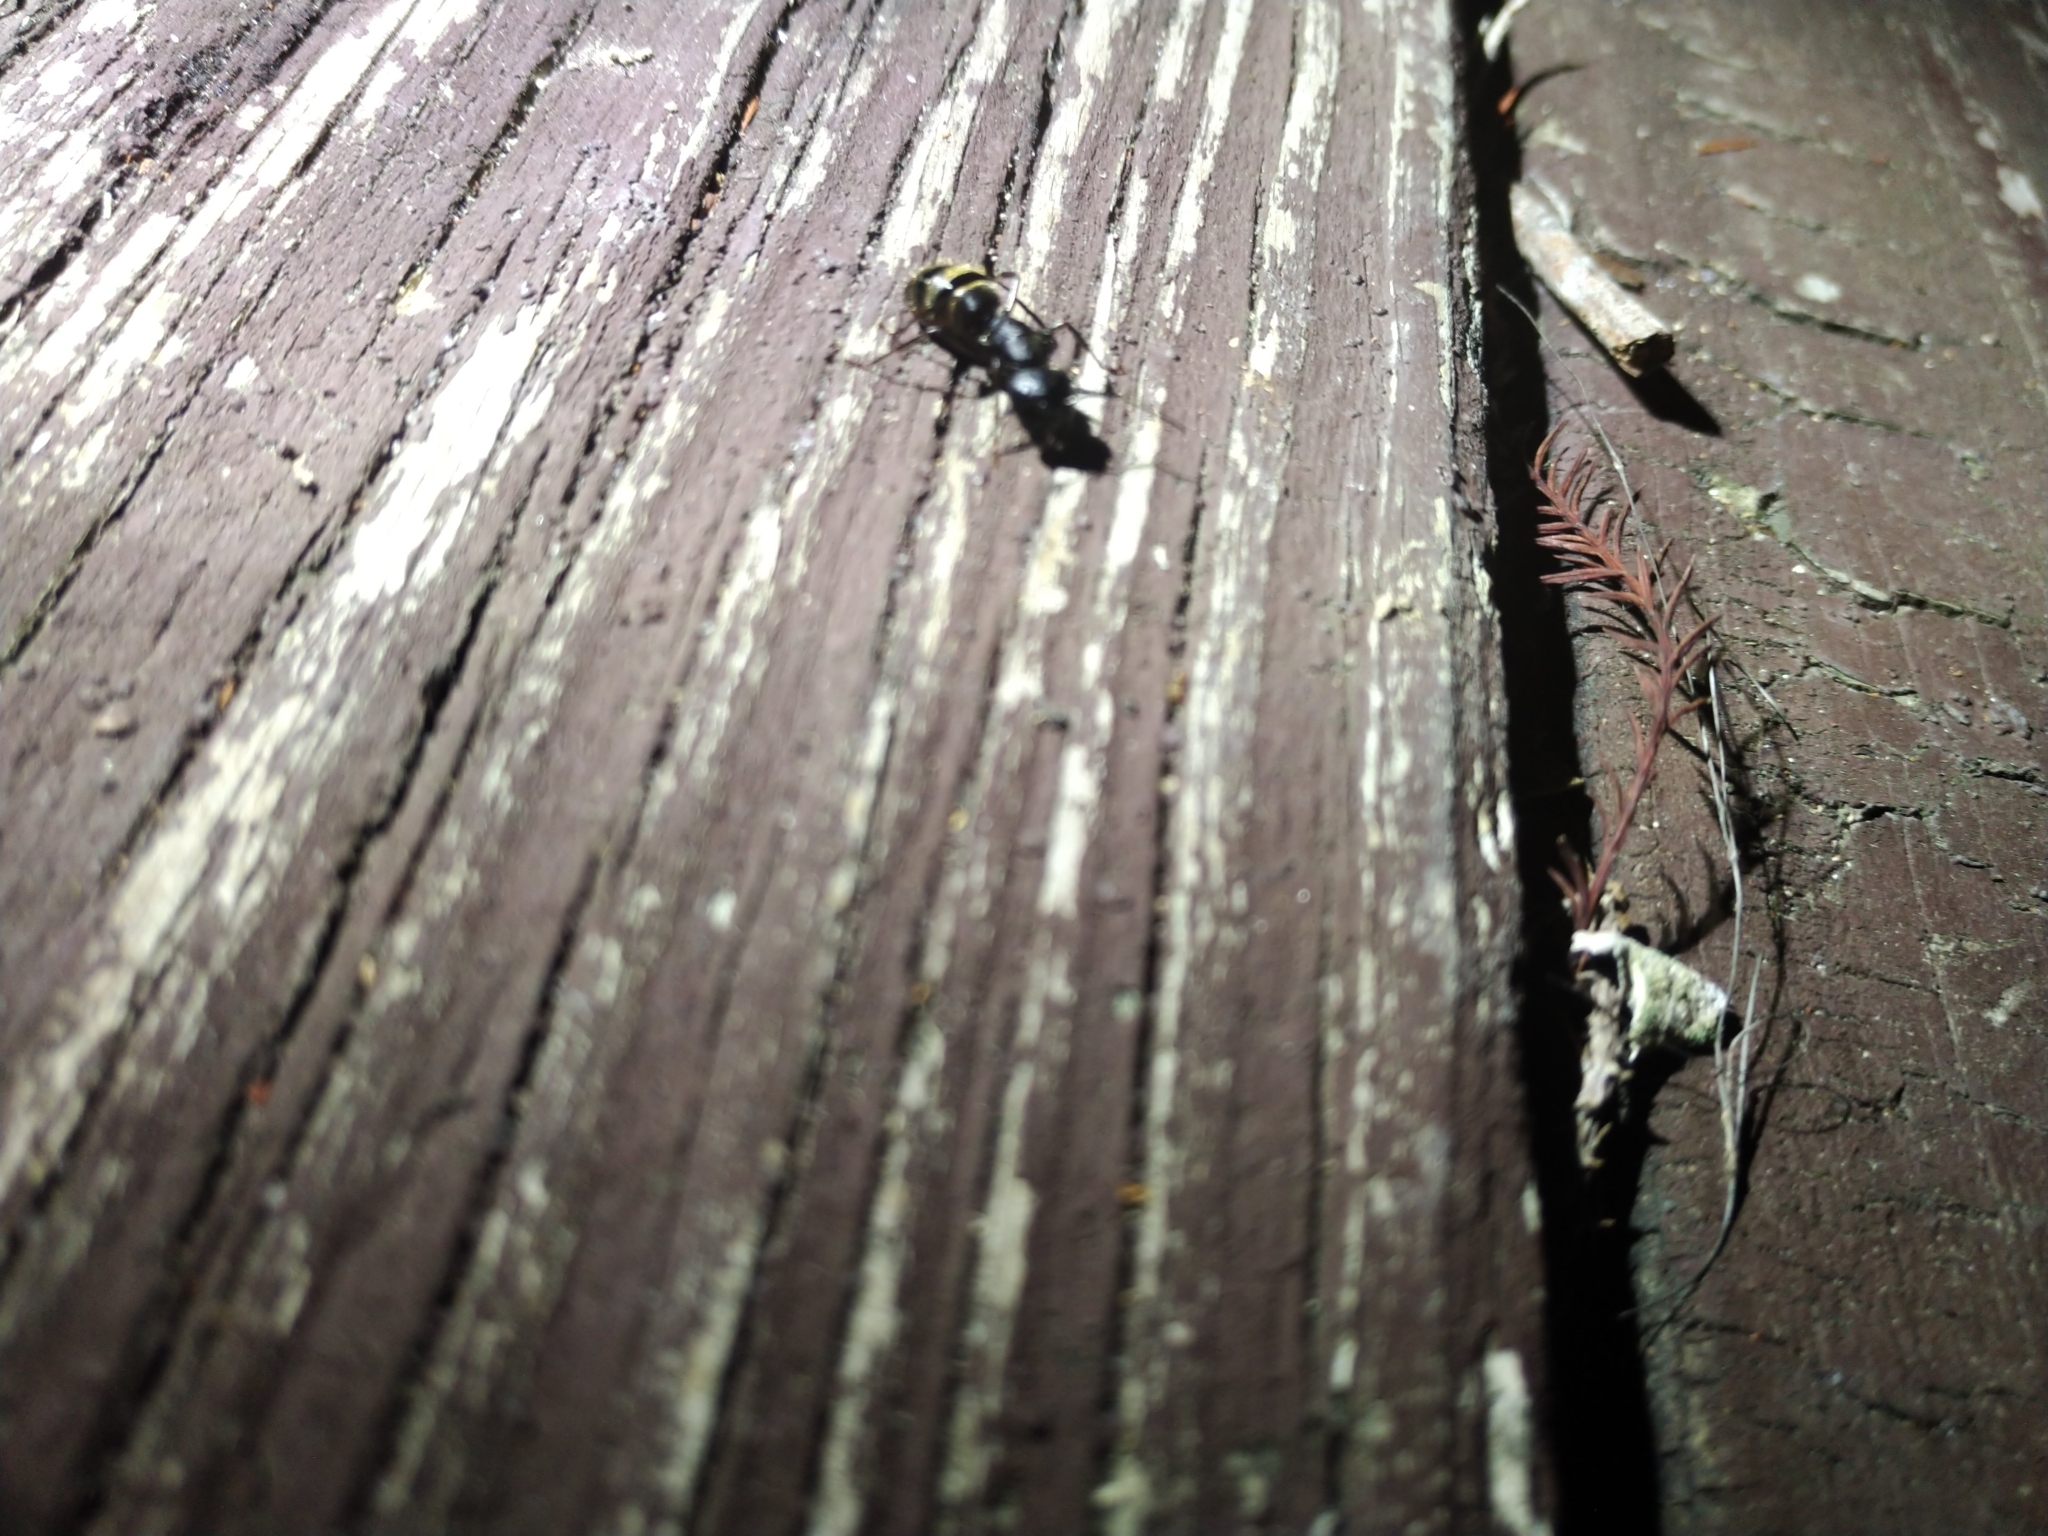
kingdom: Animalia
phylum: Arthropoda
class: Insecta
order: Hymenoptera
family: Formicidae
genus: Camponotus
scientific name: Camponotus pennsylvanicus
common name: Black carpenter ant
